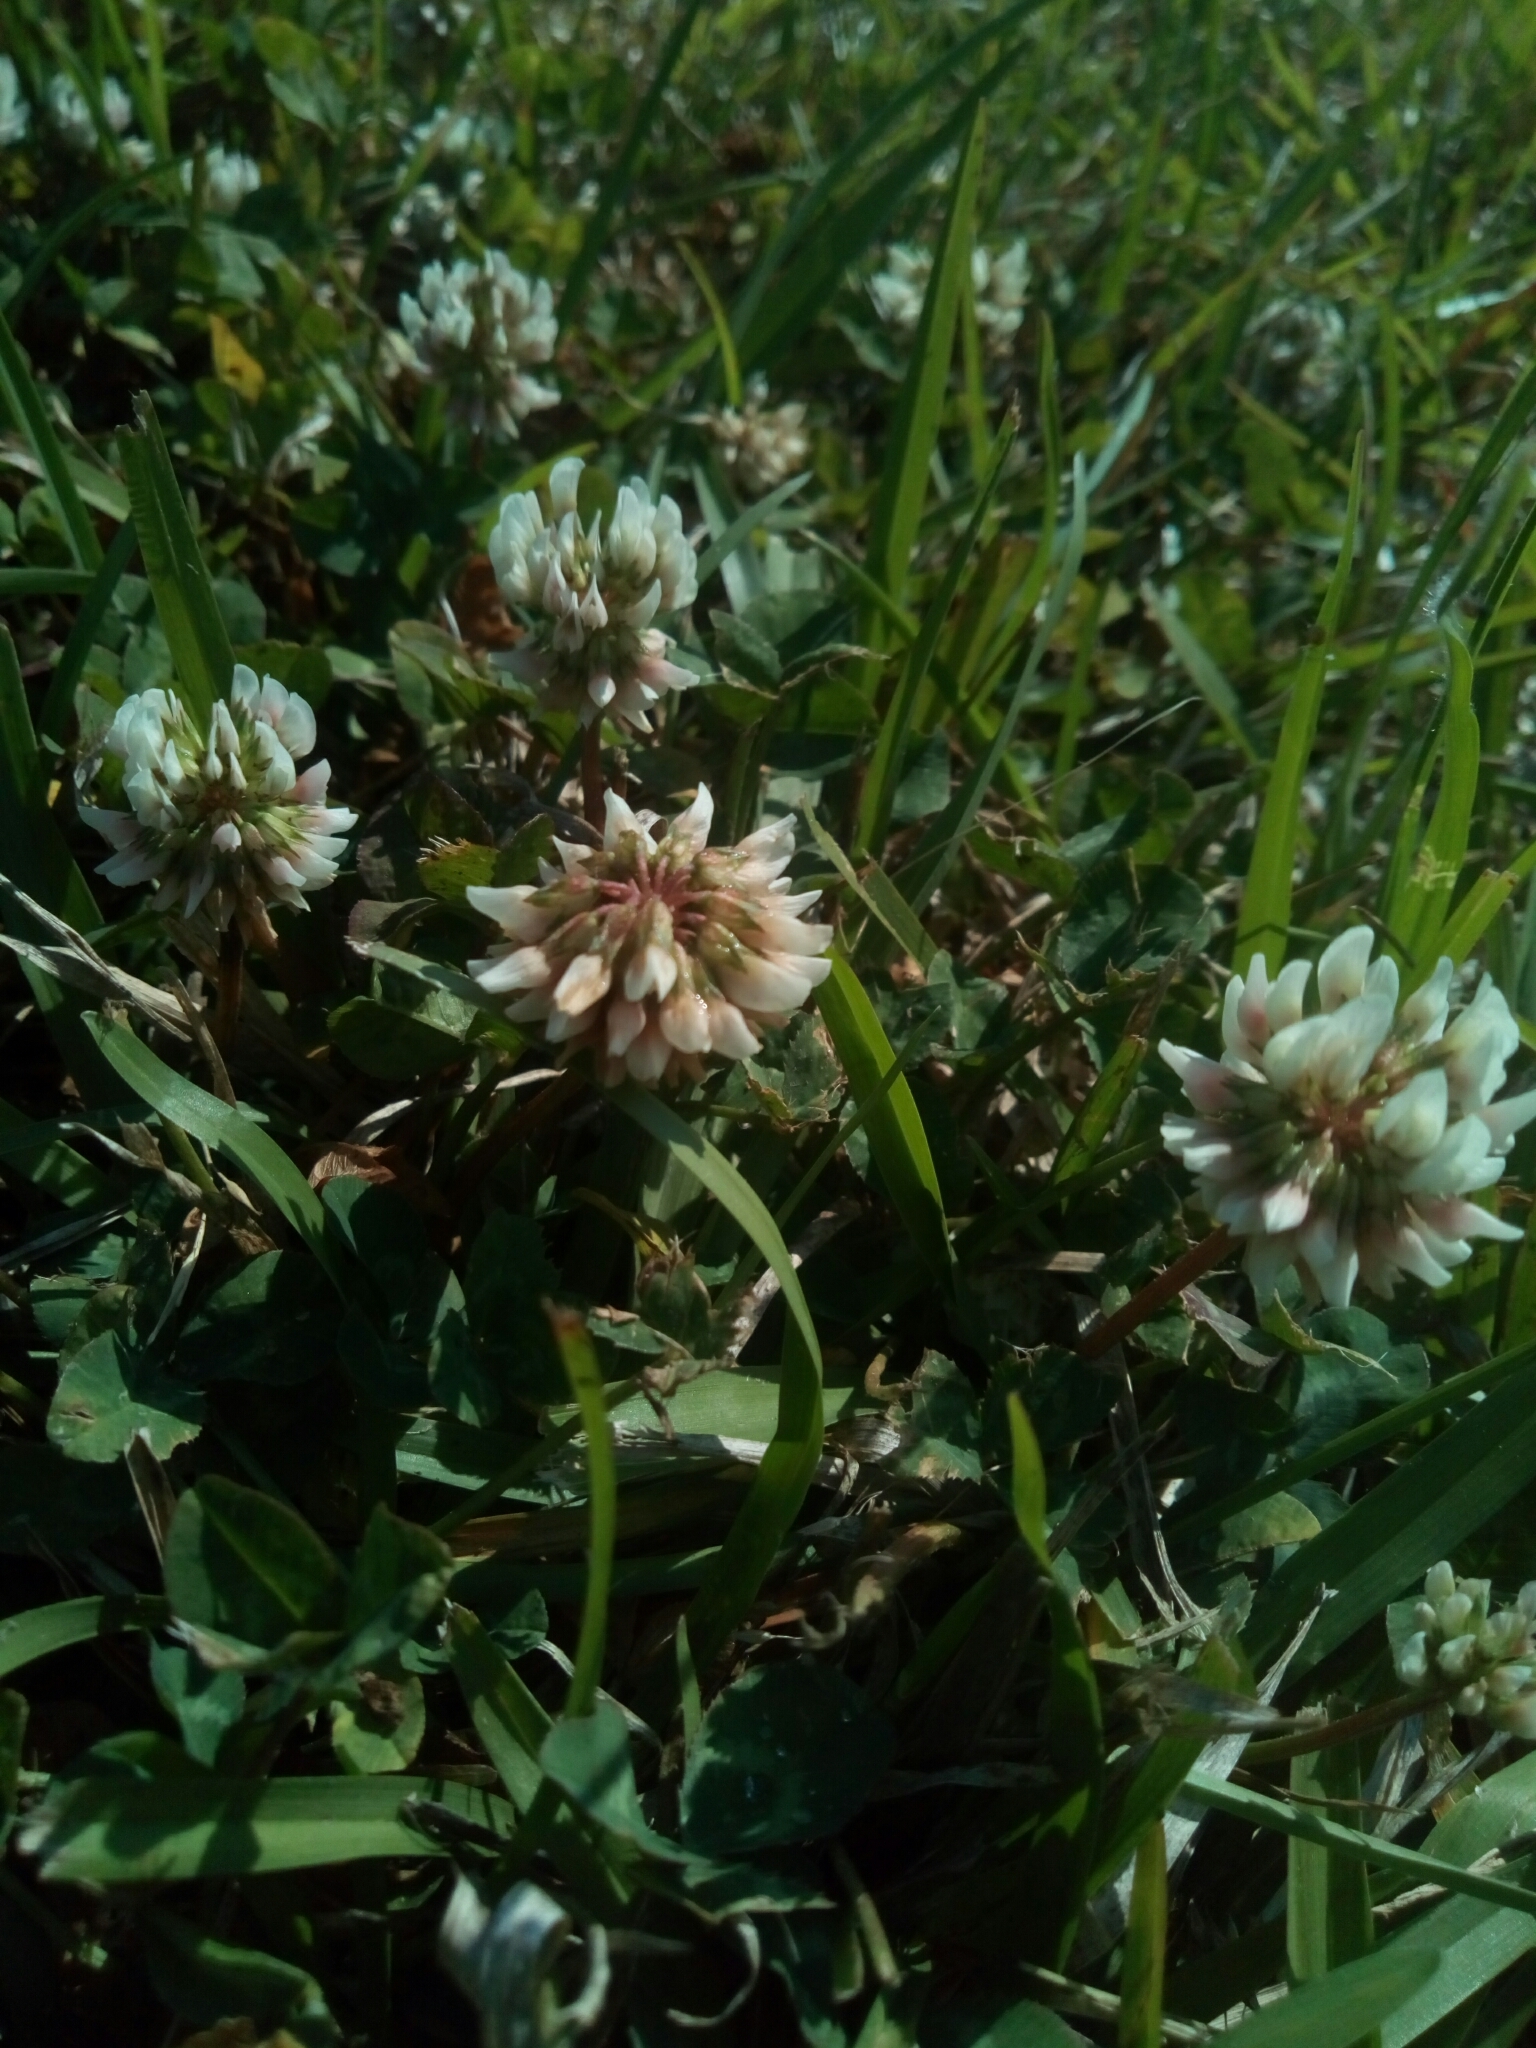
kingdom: Plantae
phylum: Tracheophyta
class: Magnoliopsida
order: Fabales
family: Fabaceae
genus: Trifolium
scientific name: Trifolium repens
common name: White clover
